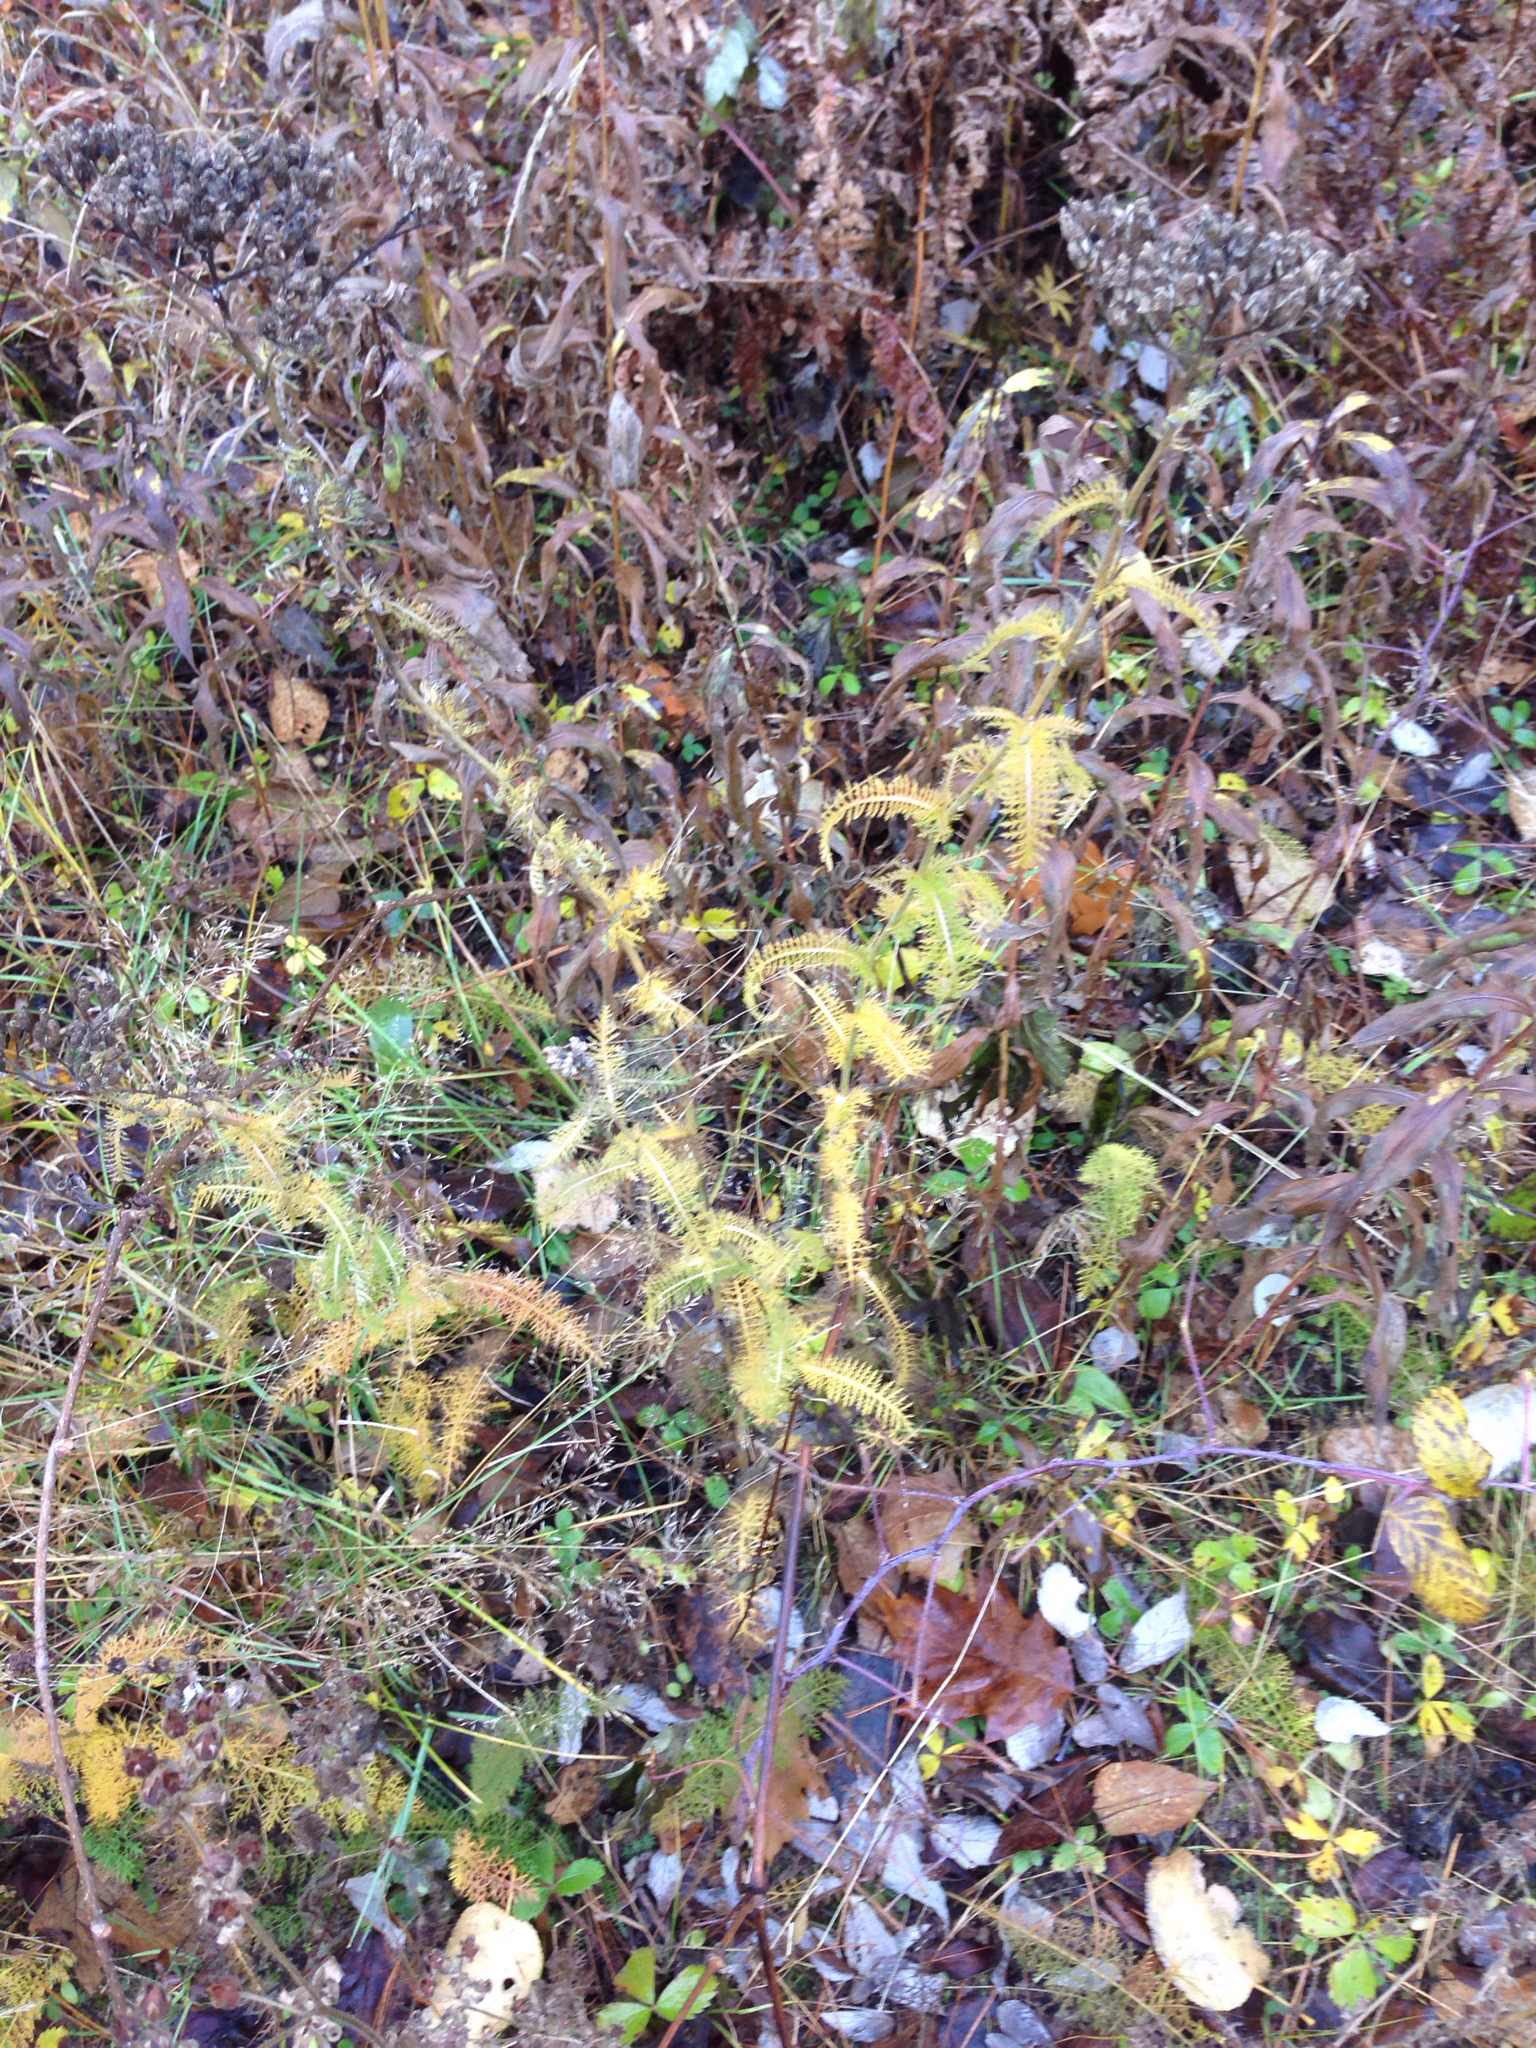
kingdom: Plantae
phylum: Tracheophyta
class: Magnoliopsida
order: Asterales
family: Asteraceae
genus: Achillea
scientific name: Achillea millefolium
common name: Yarrow
